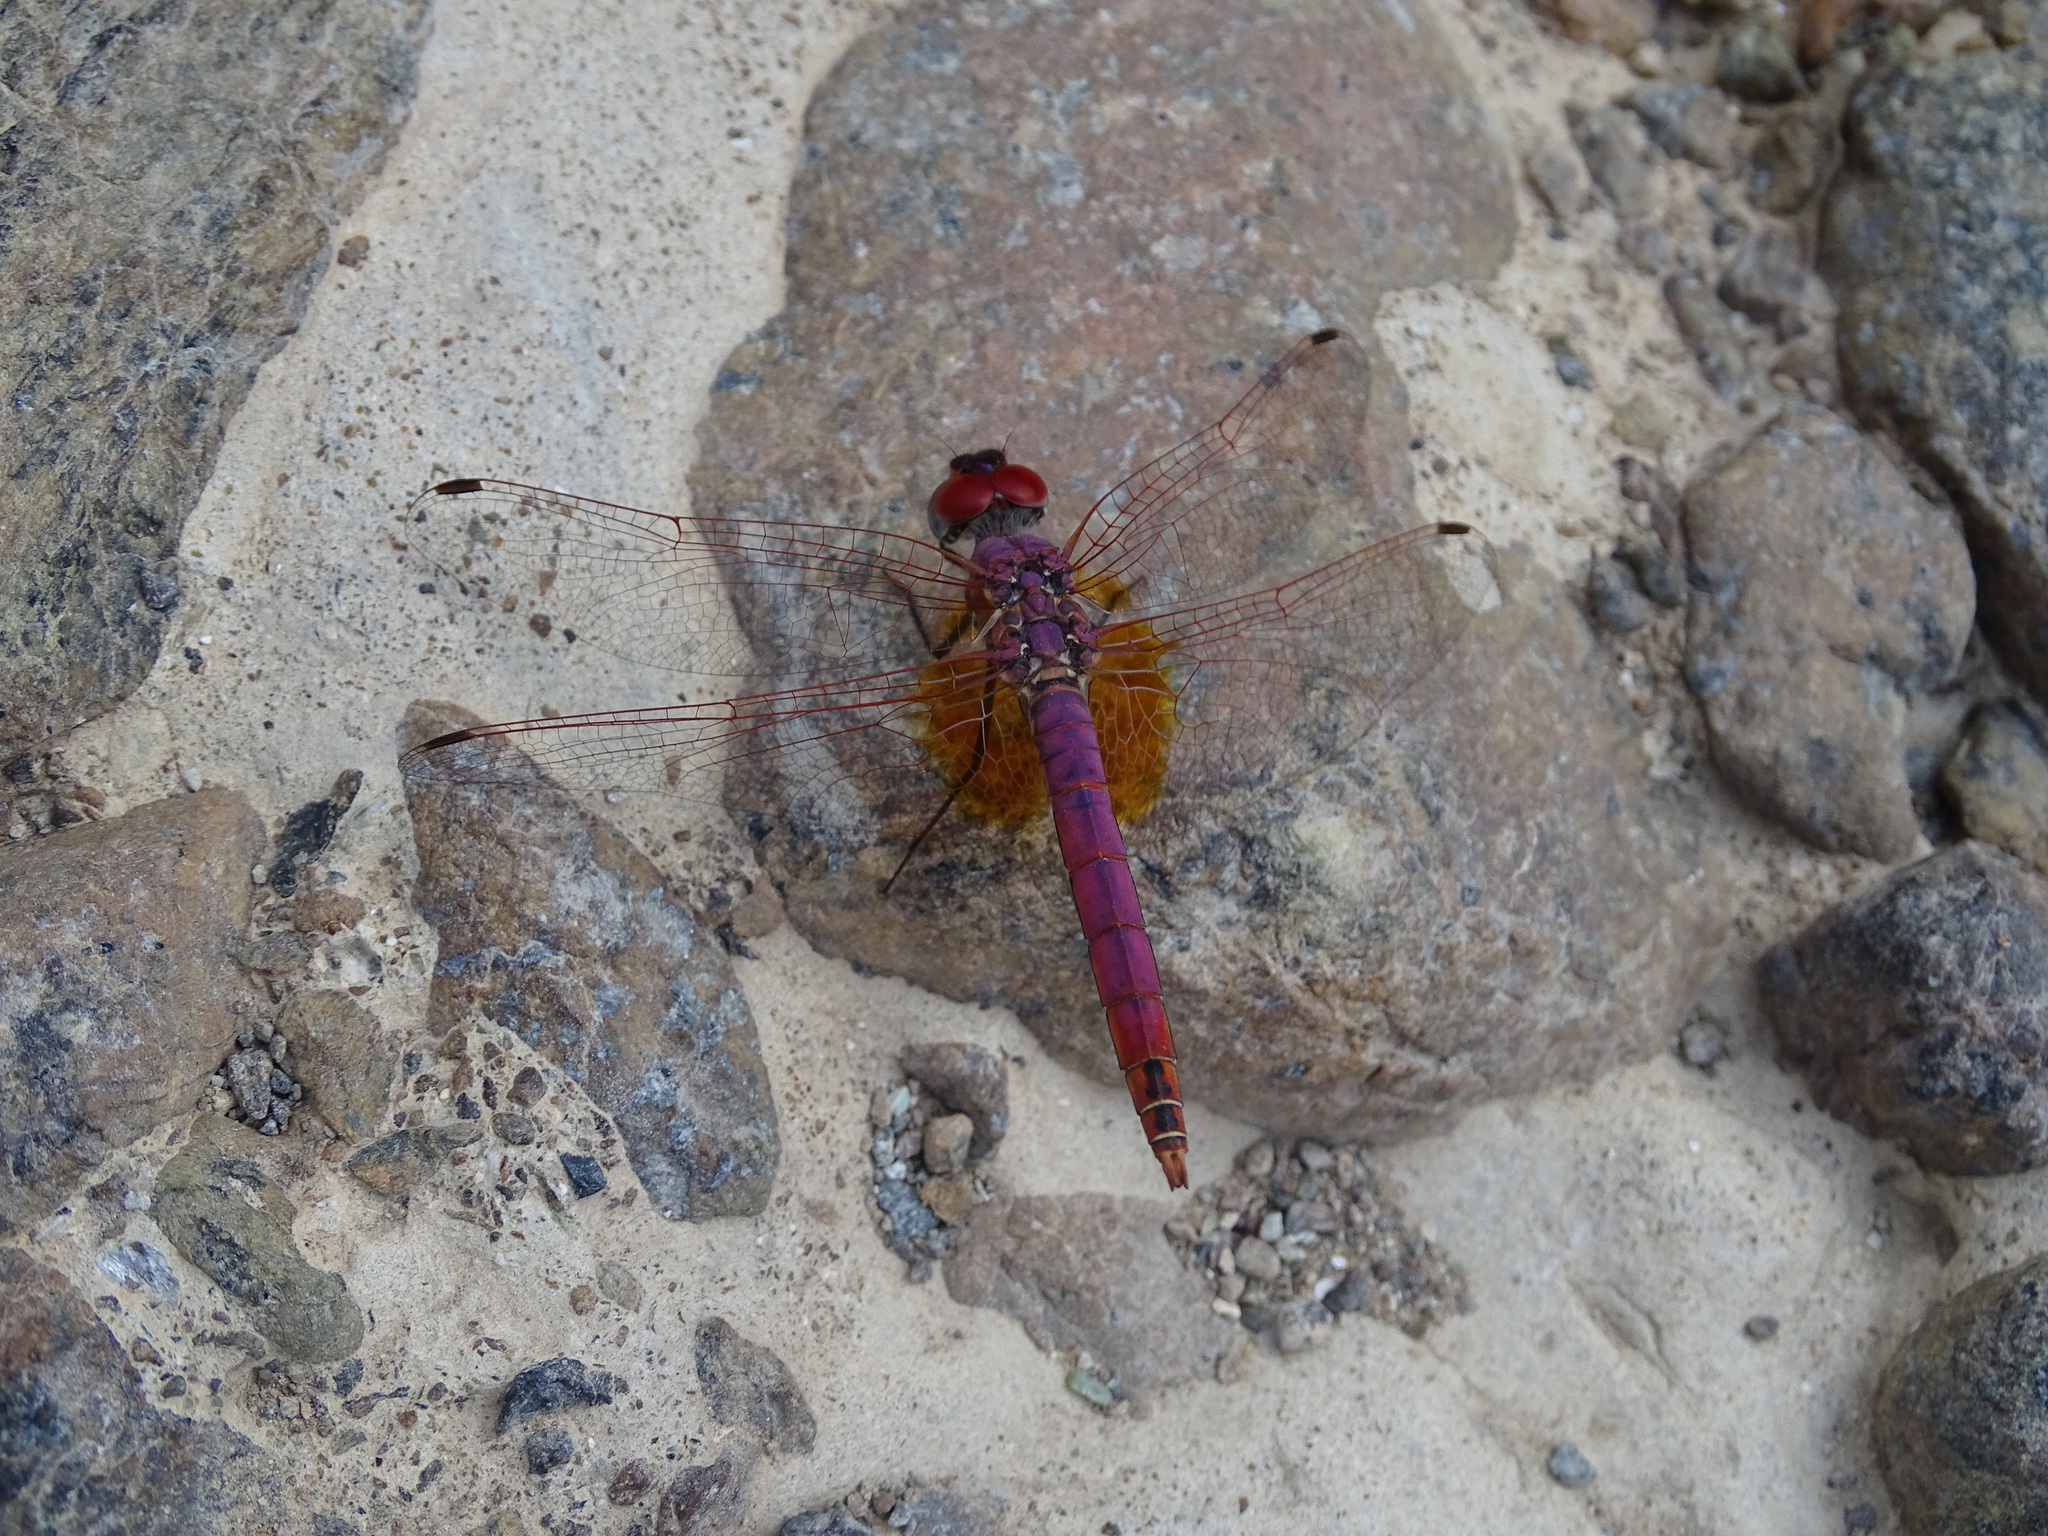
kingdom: Animalia
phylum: Arthropoda
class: Insecta
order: Odonata
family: Libellulidae
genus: Trithemis
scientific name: Trithemis annulata
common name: Violet dropwing
